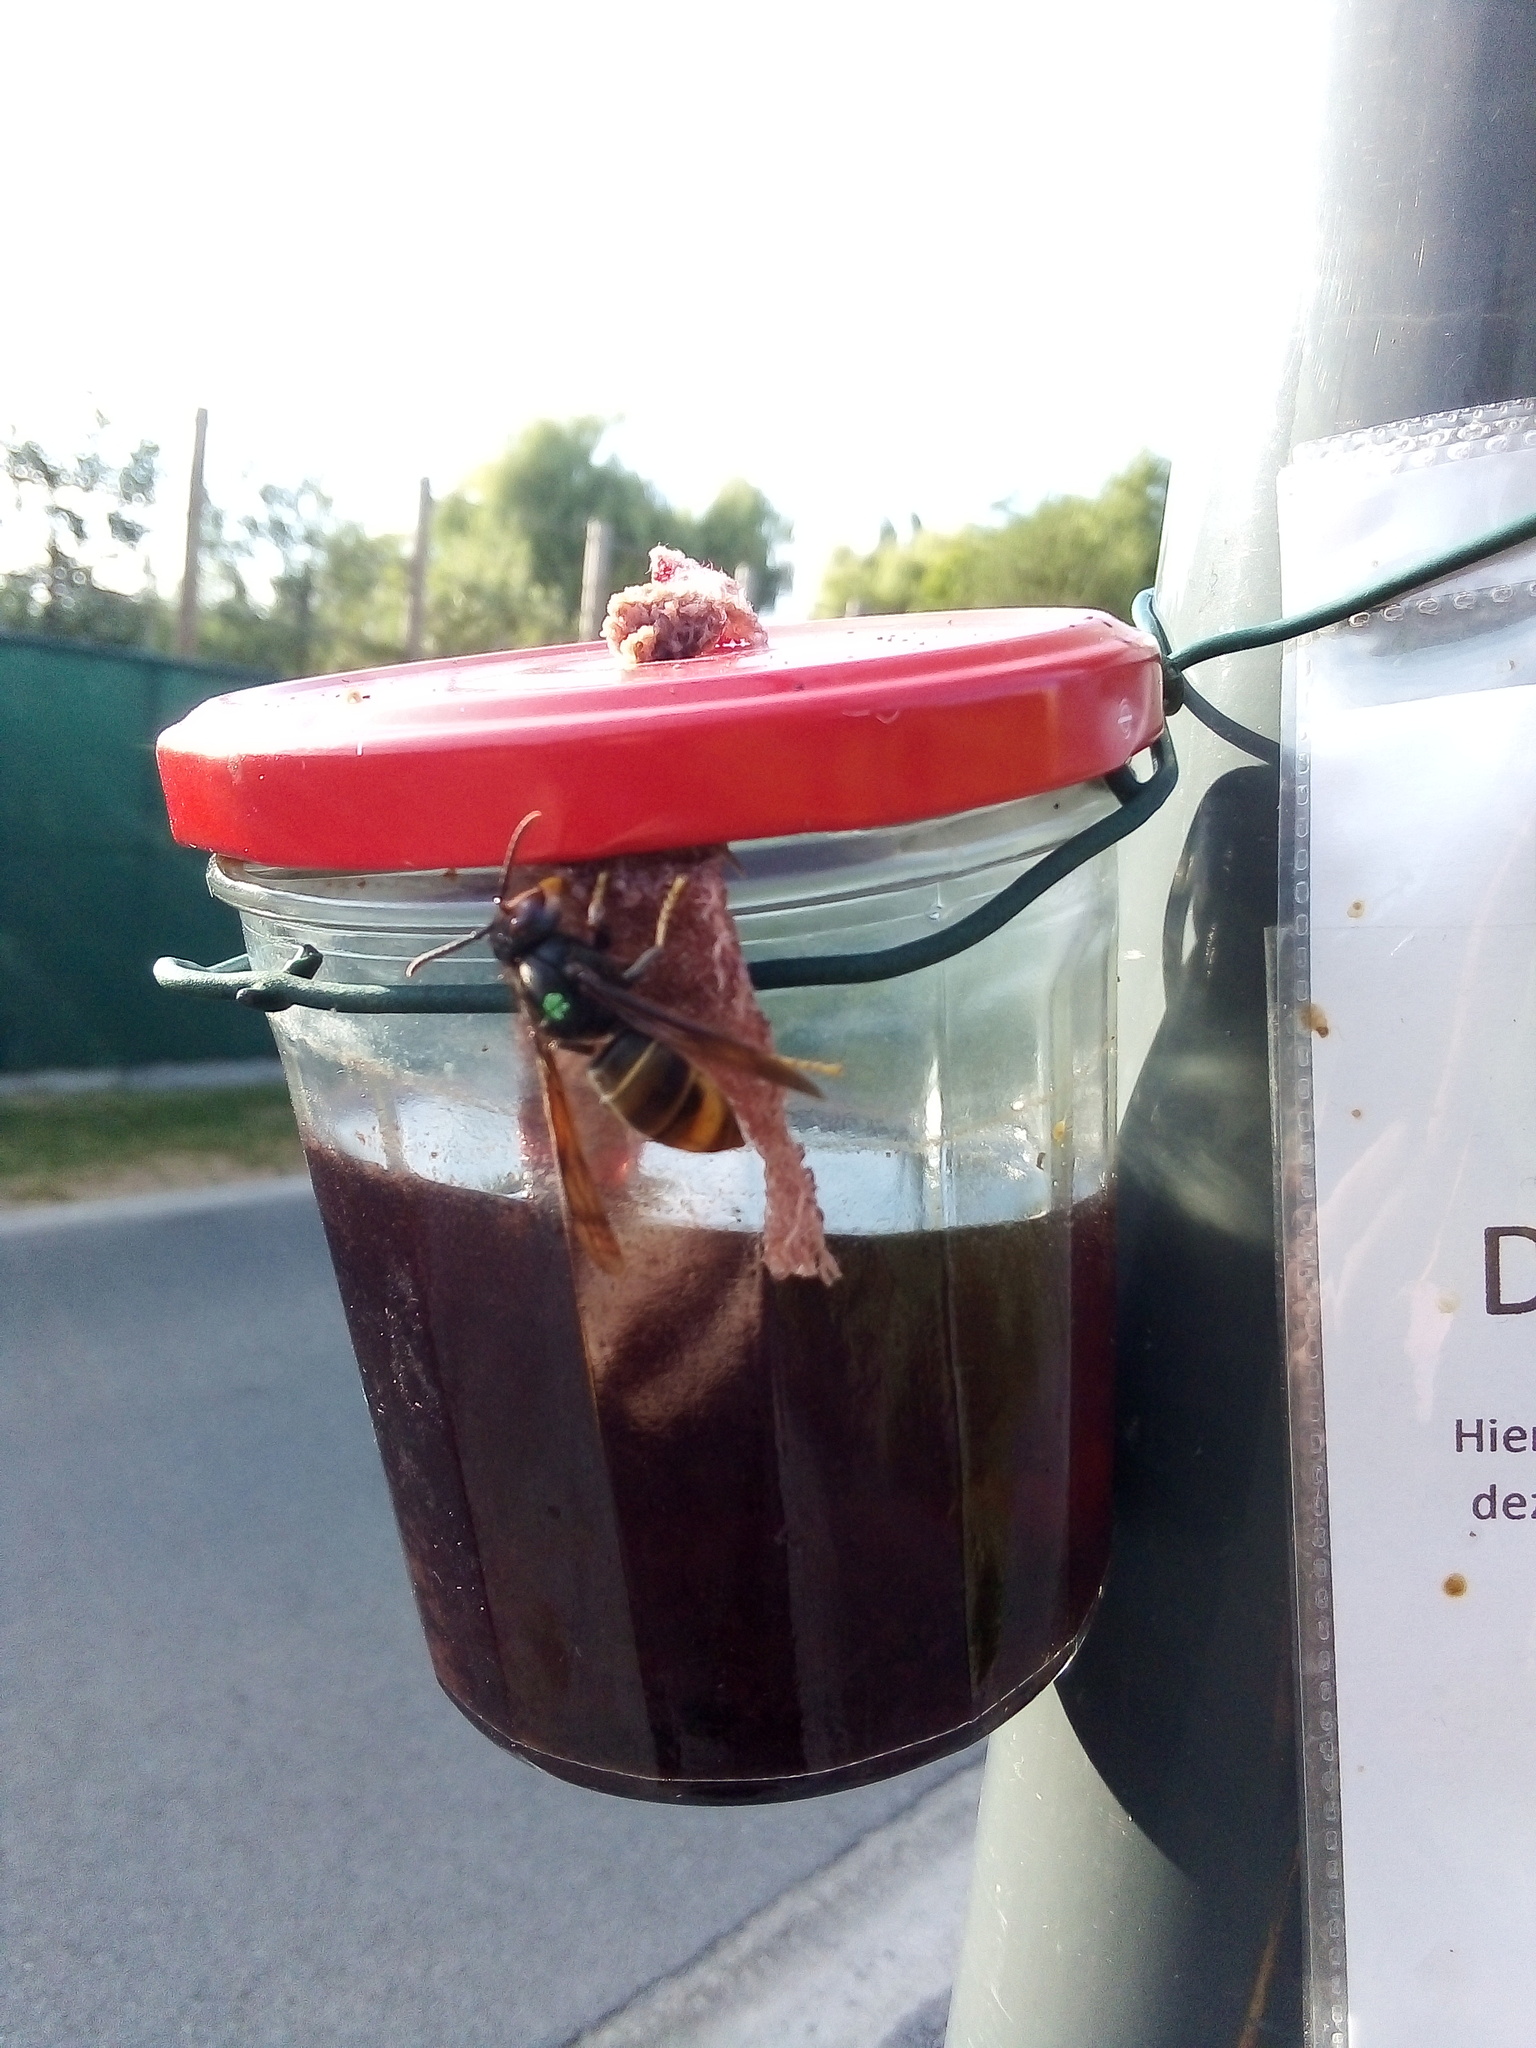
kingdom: Animalia
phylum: Arthropoda
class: Insecta
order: Hymenoptera
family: Vespidae
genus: Vespa
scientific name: Vespa velutina
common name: Asian hornet
